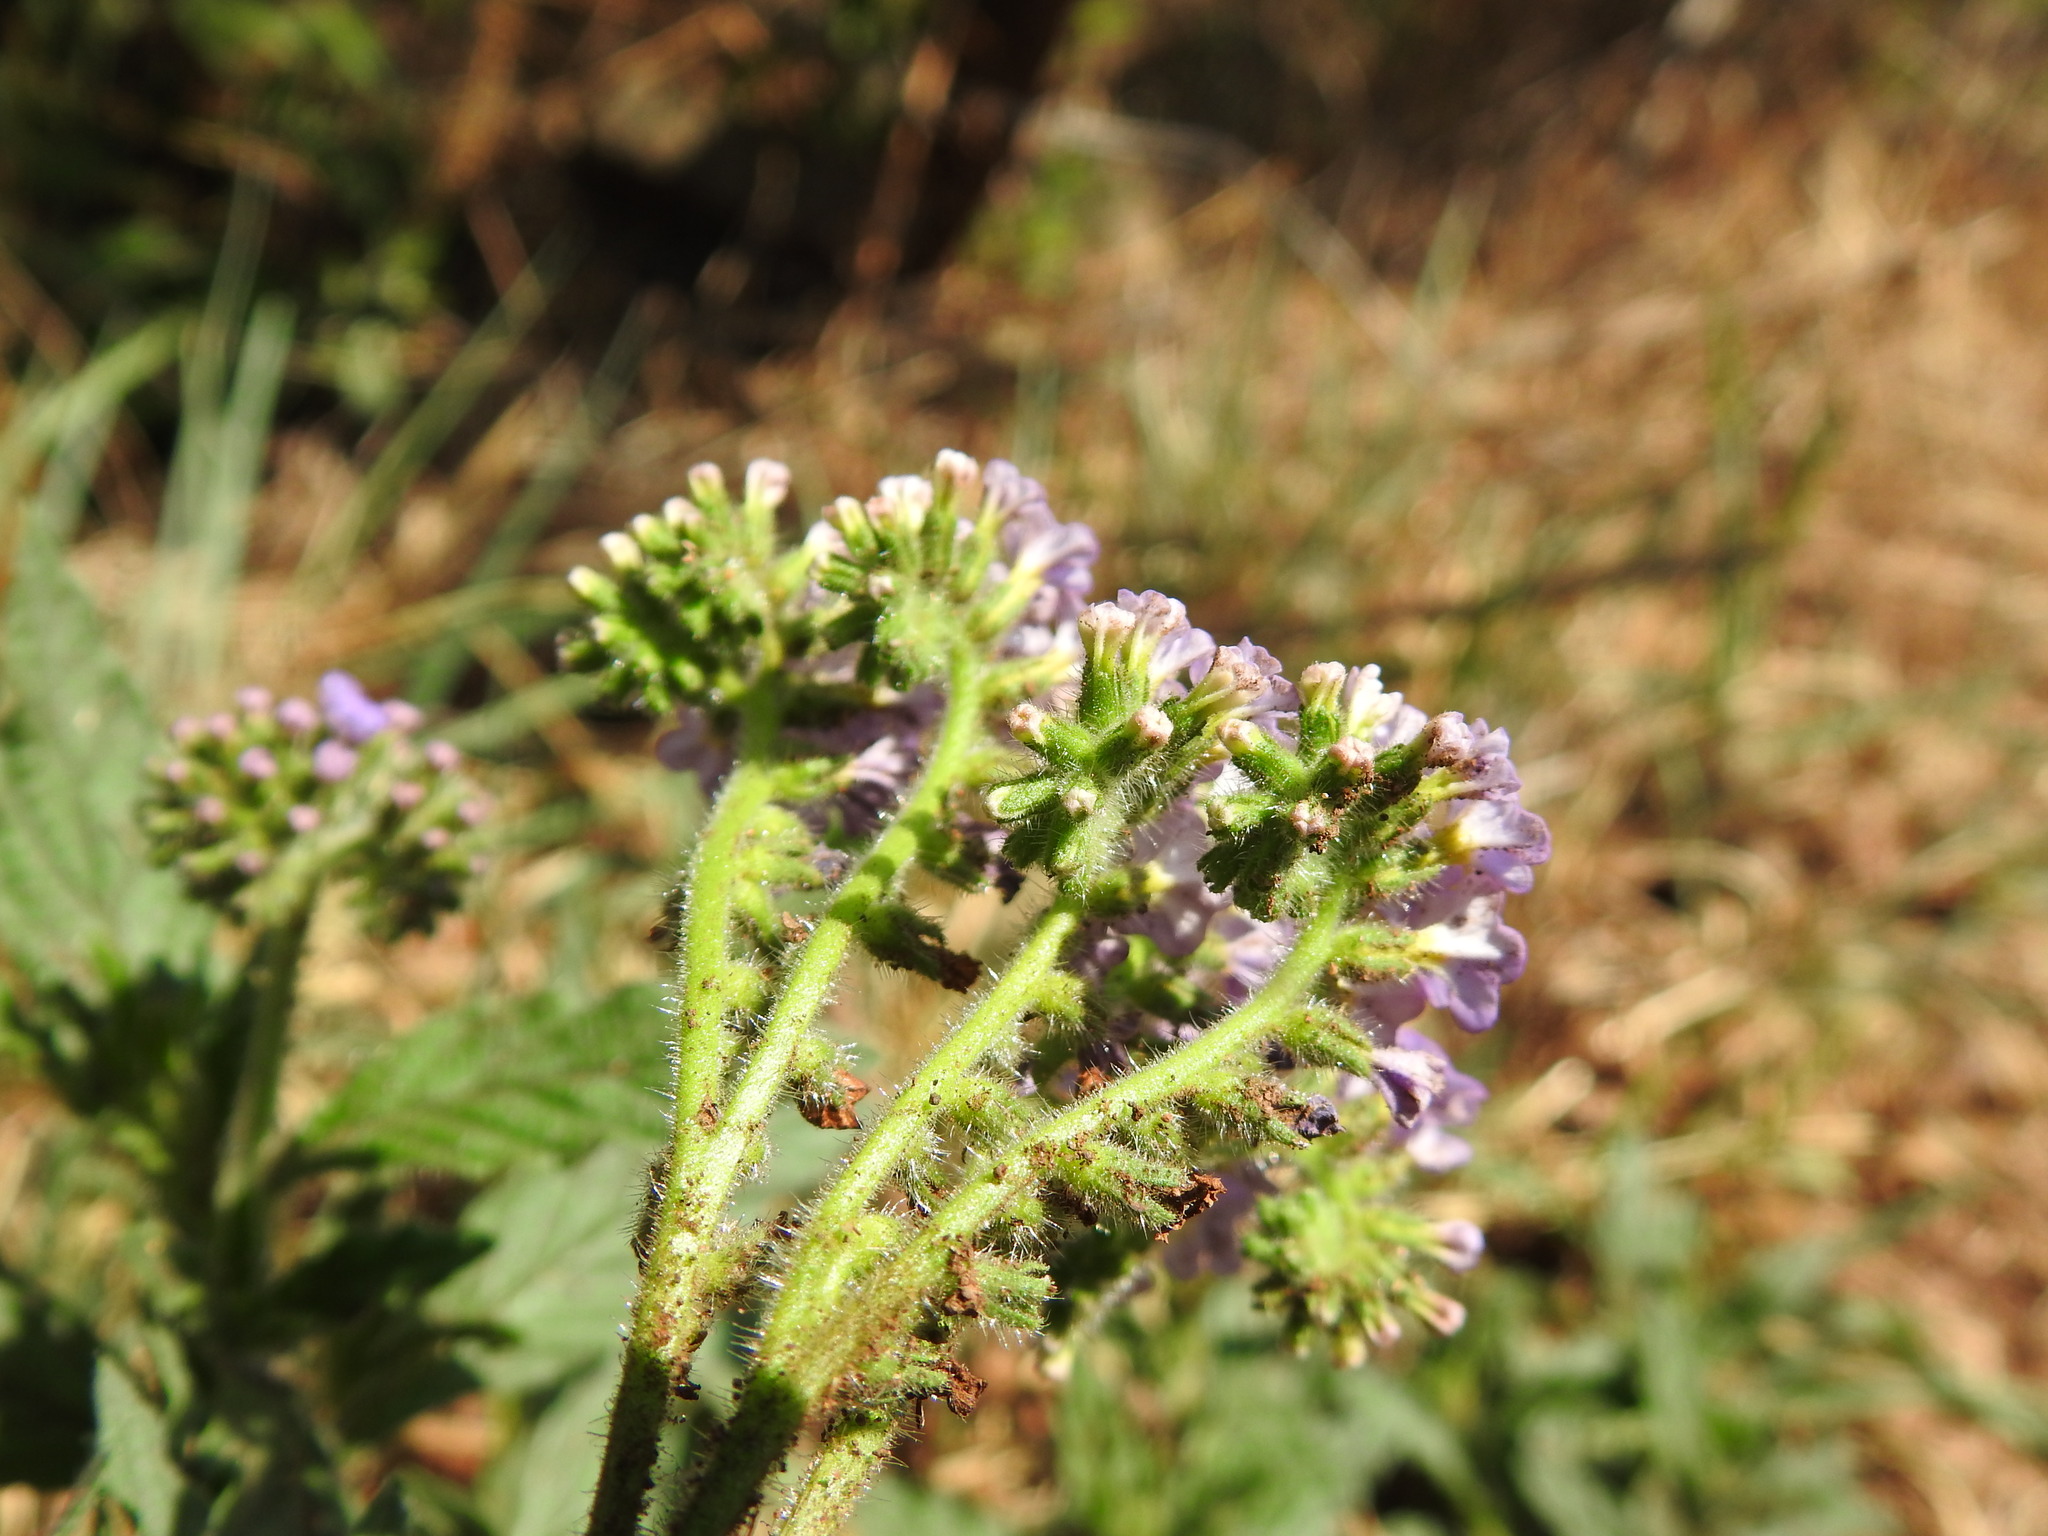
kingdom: Plantae
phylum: Tracheophyta
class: Magnoliopsida
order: Boraginales
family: Heliotropiaceae
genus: Heliotropium
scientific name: Heliotropium amplexicaule
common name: Clasping heliotrope
